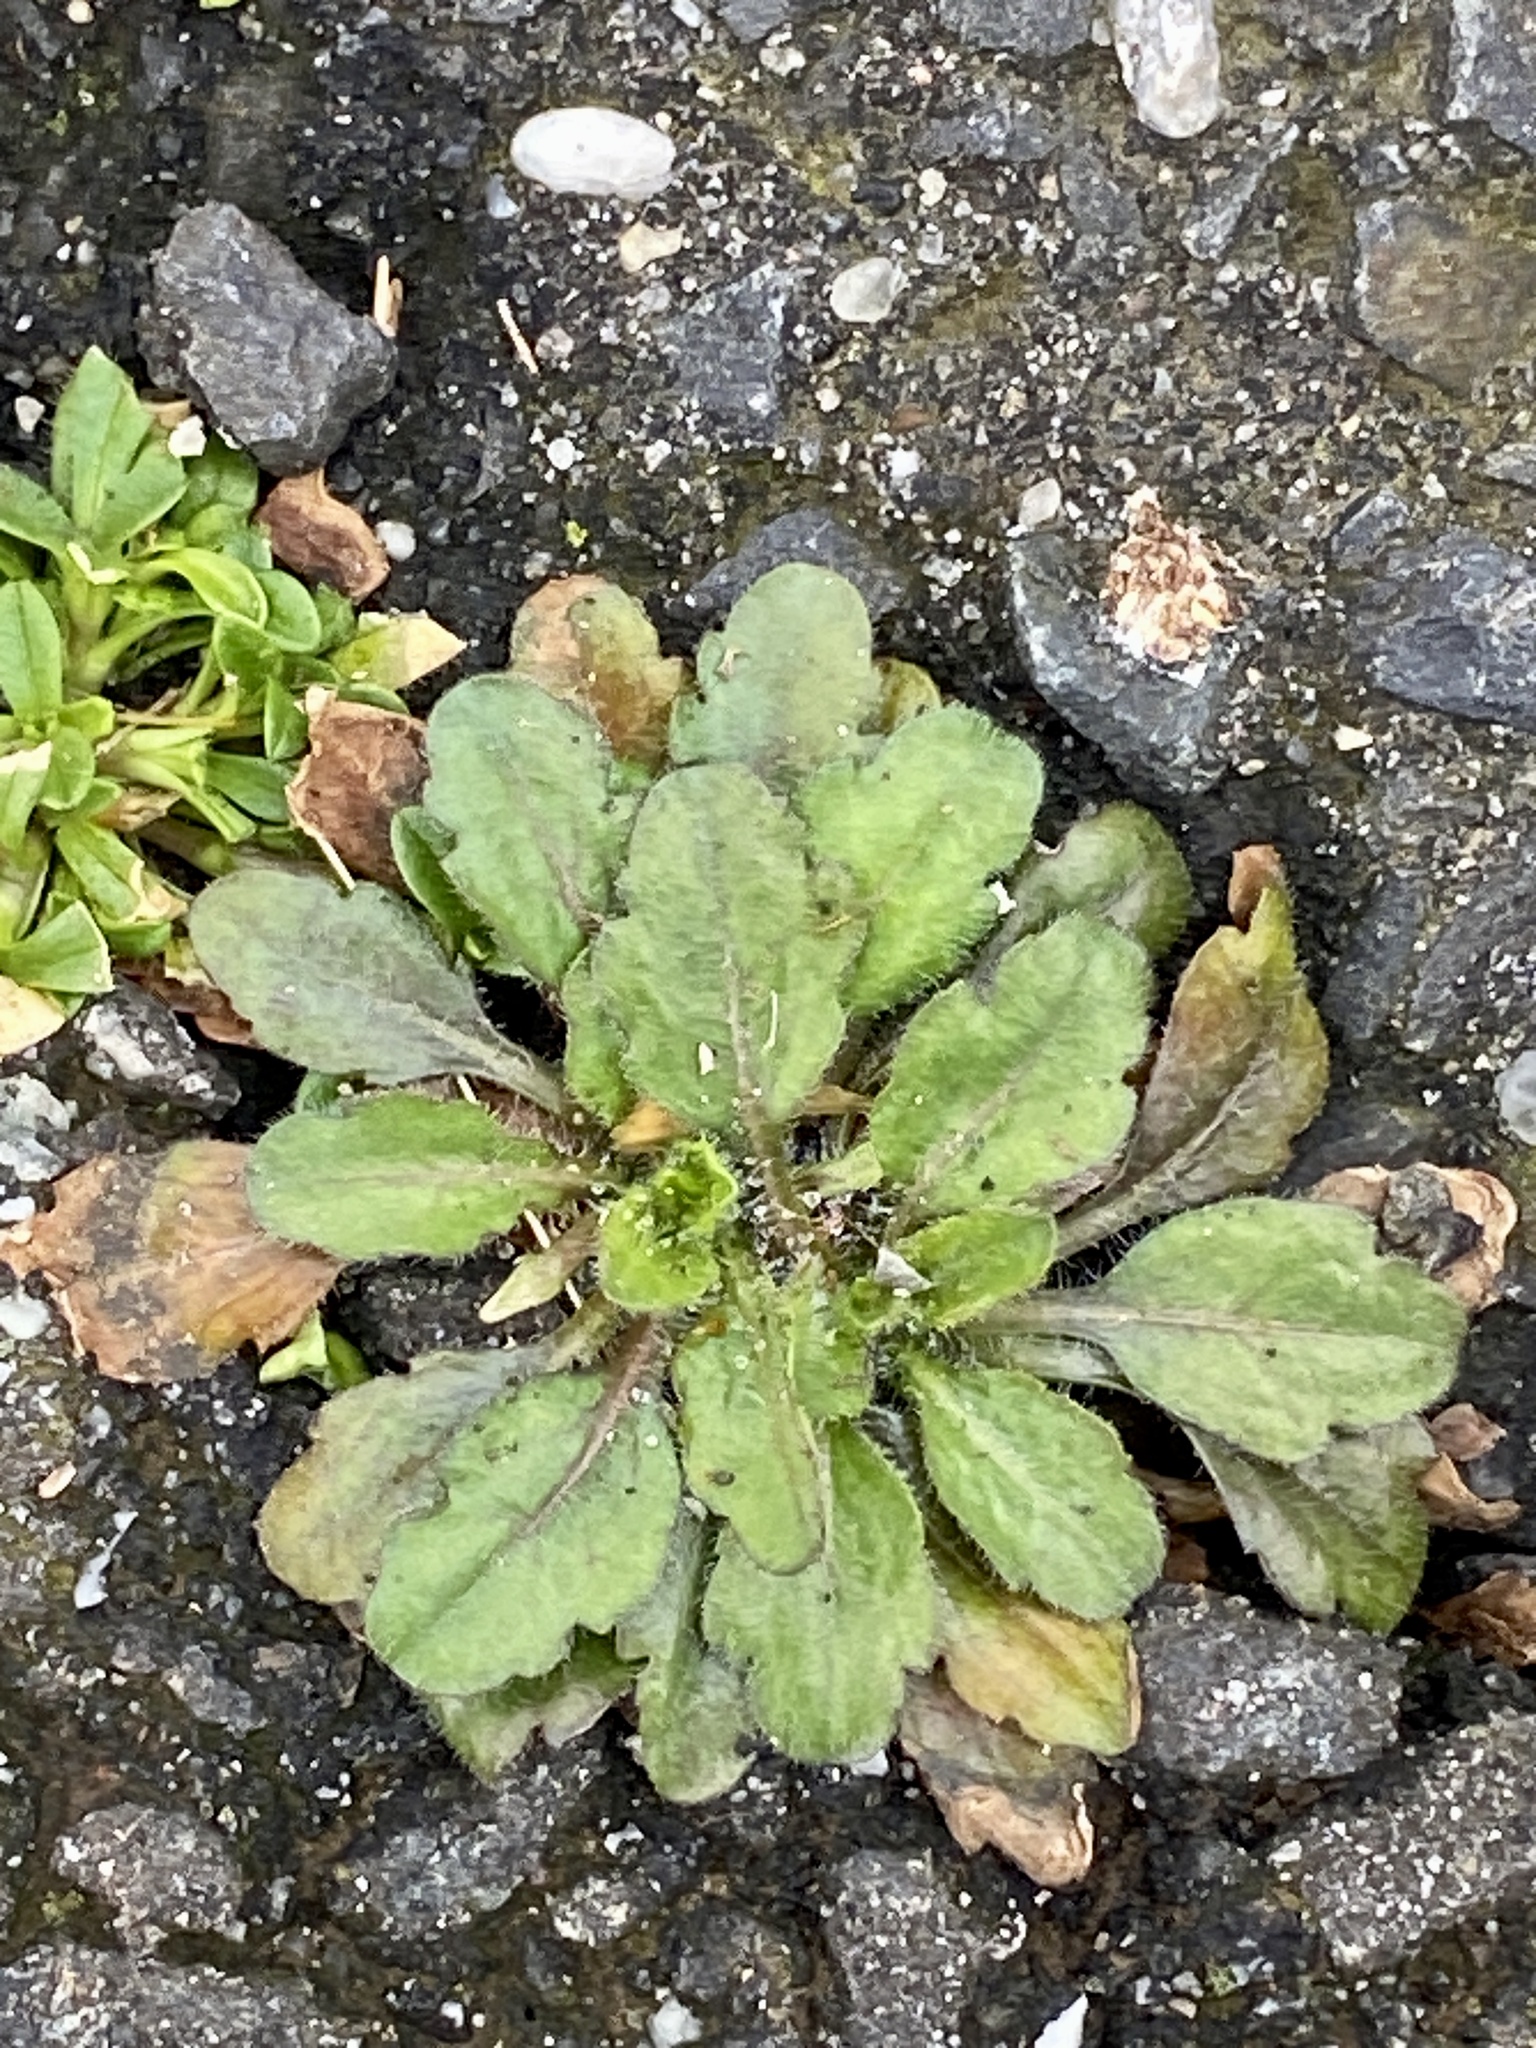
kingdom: Plantae
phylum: Tracheophyta
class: Magnoliopsida
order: Asterales
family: Asteraceae
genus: Erigeron
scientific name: Erigeron canadensis
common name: Canadian fleabane
